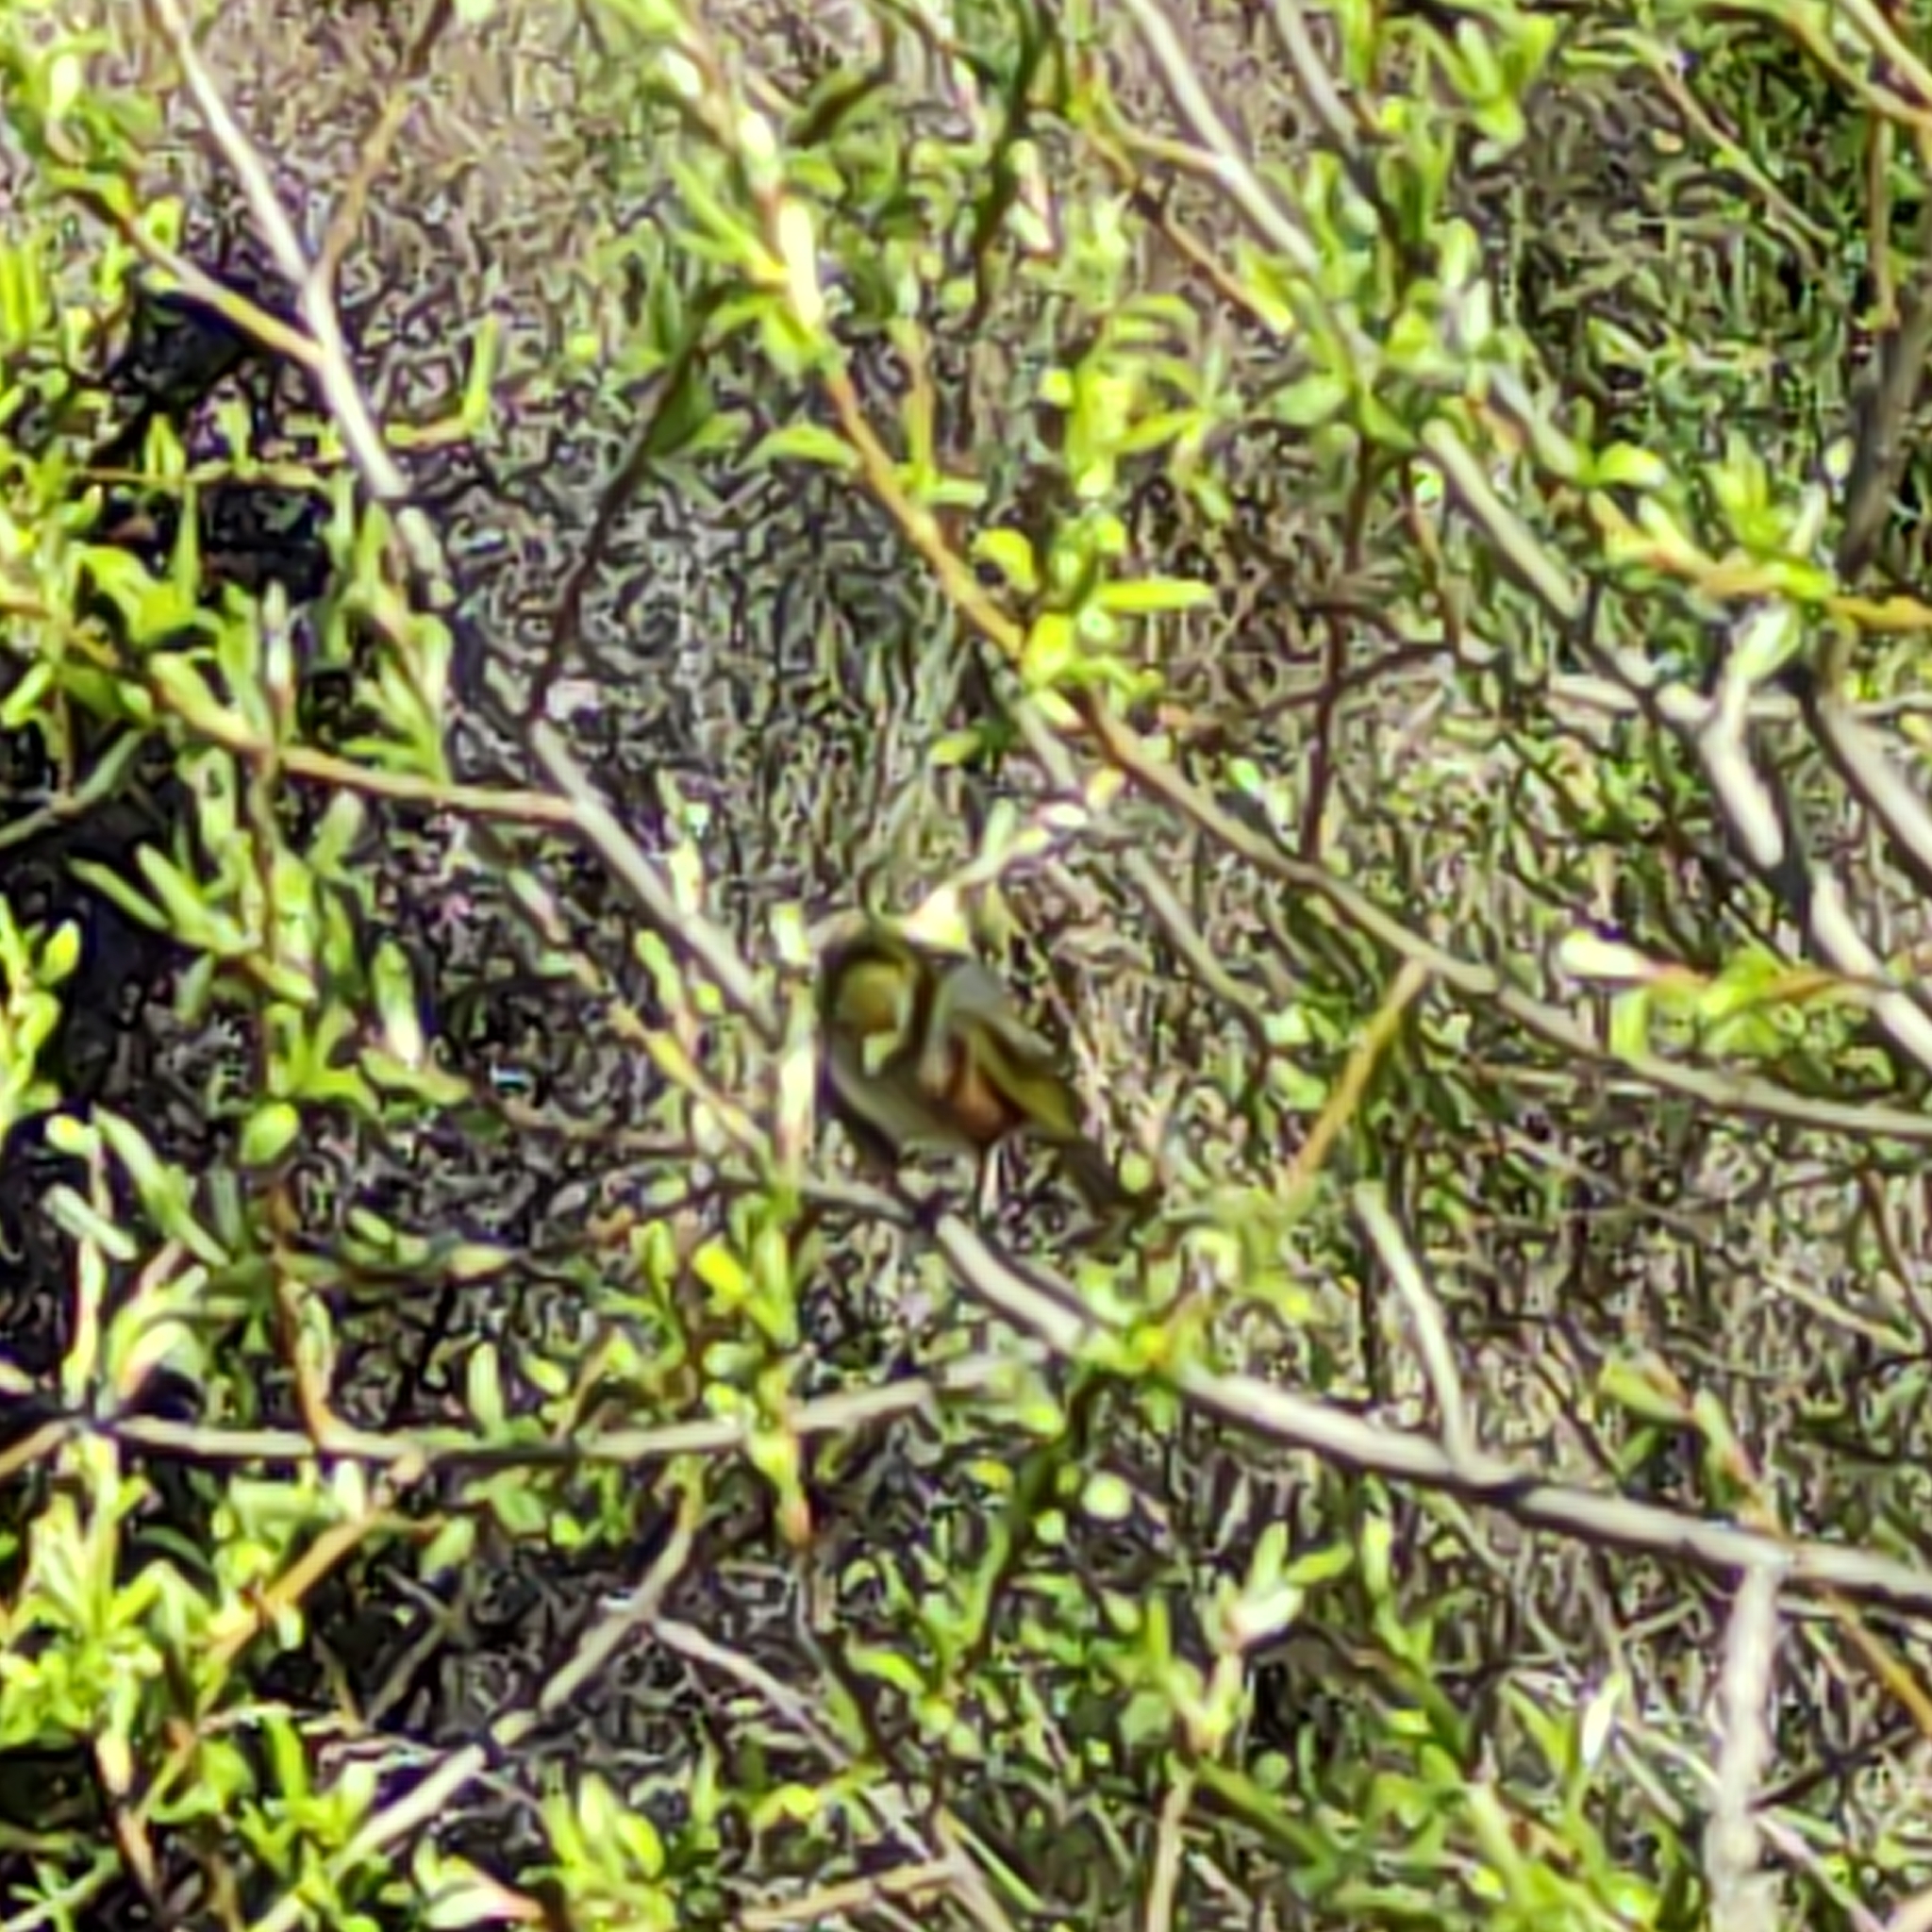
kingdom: Animalia
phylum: Chordata
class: Aves
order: Passeriformes
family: Zosteropidae
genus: Zosterops
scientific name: Zosterops lateralis
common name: Silvereye
